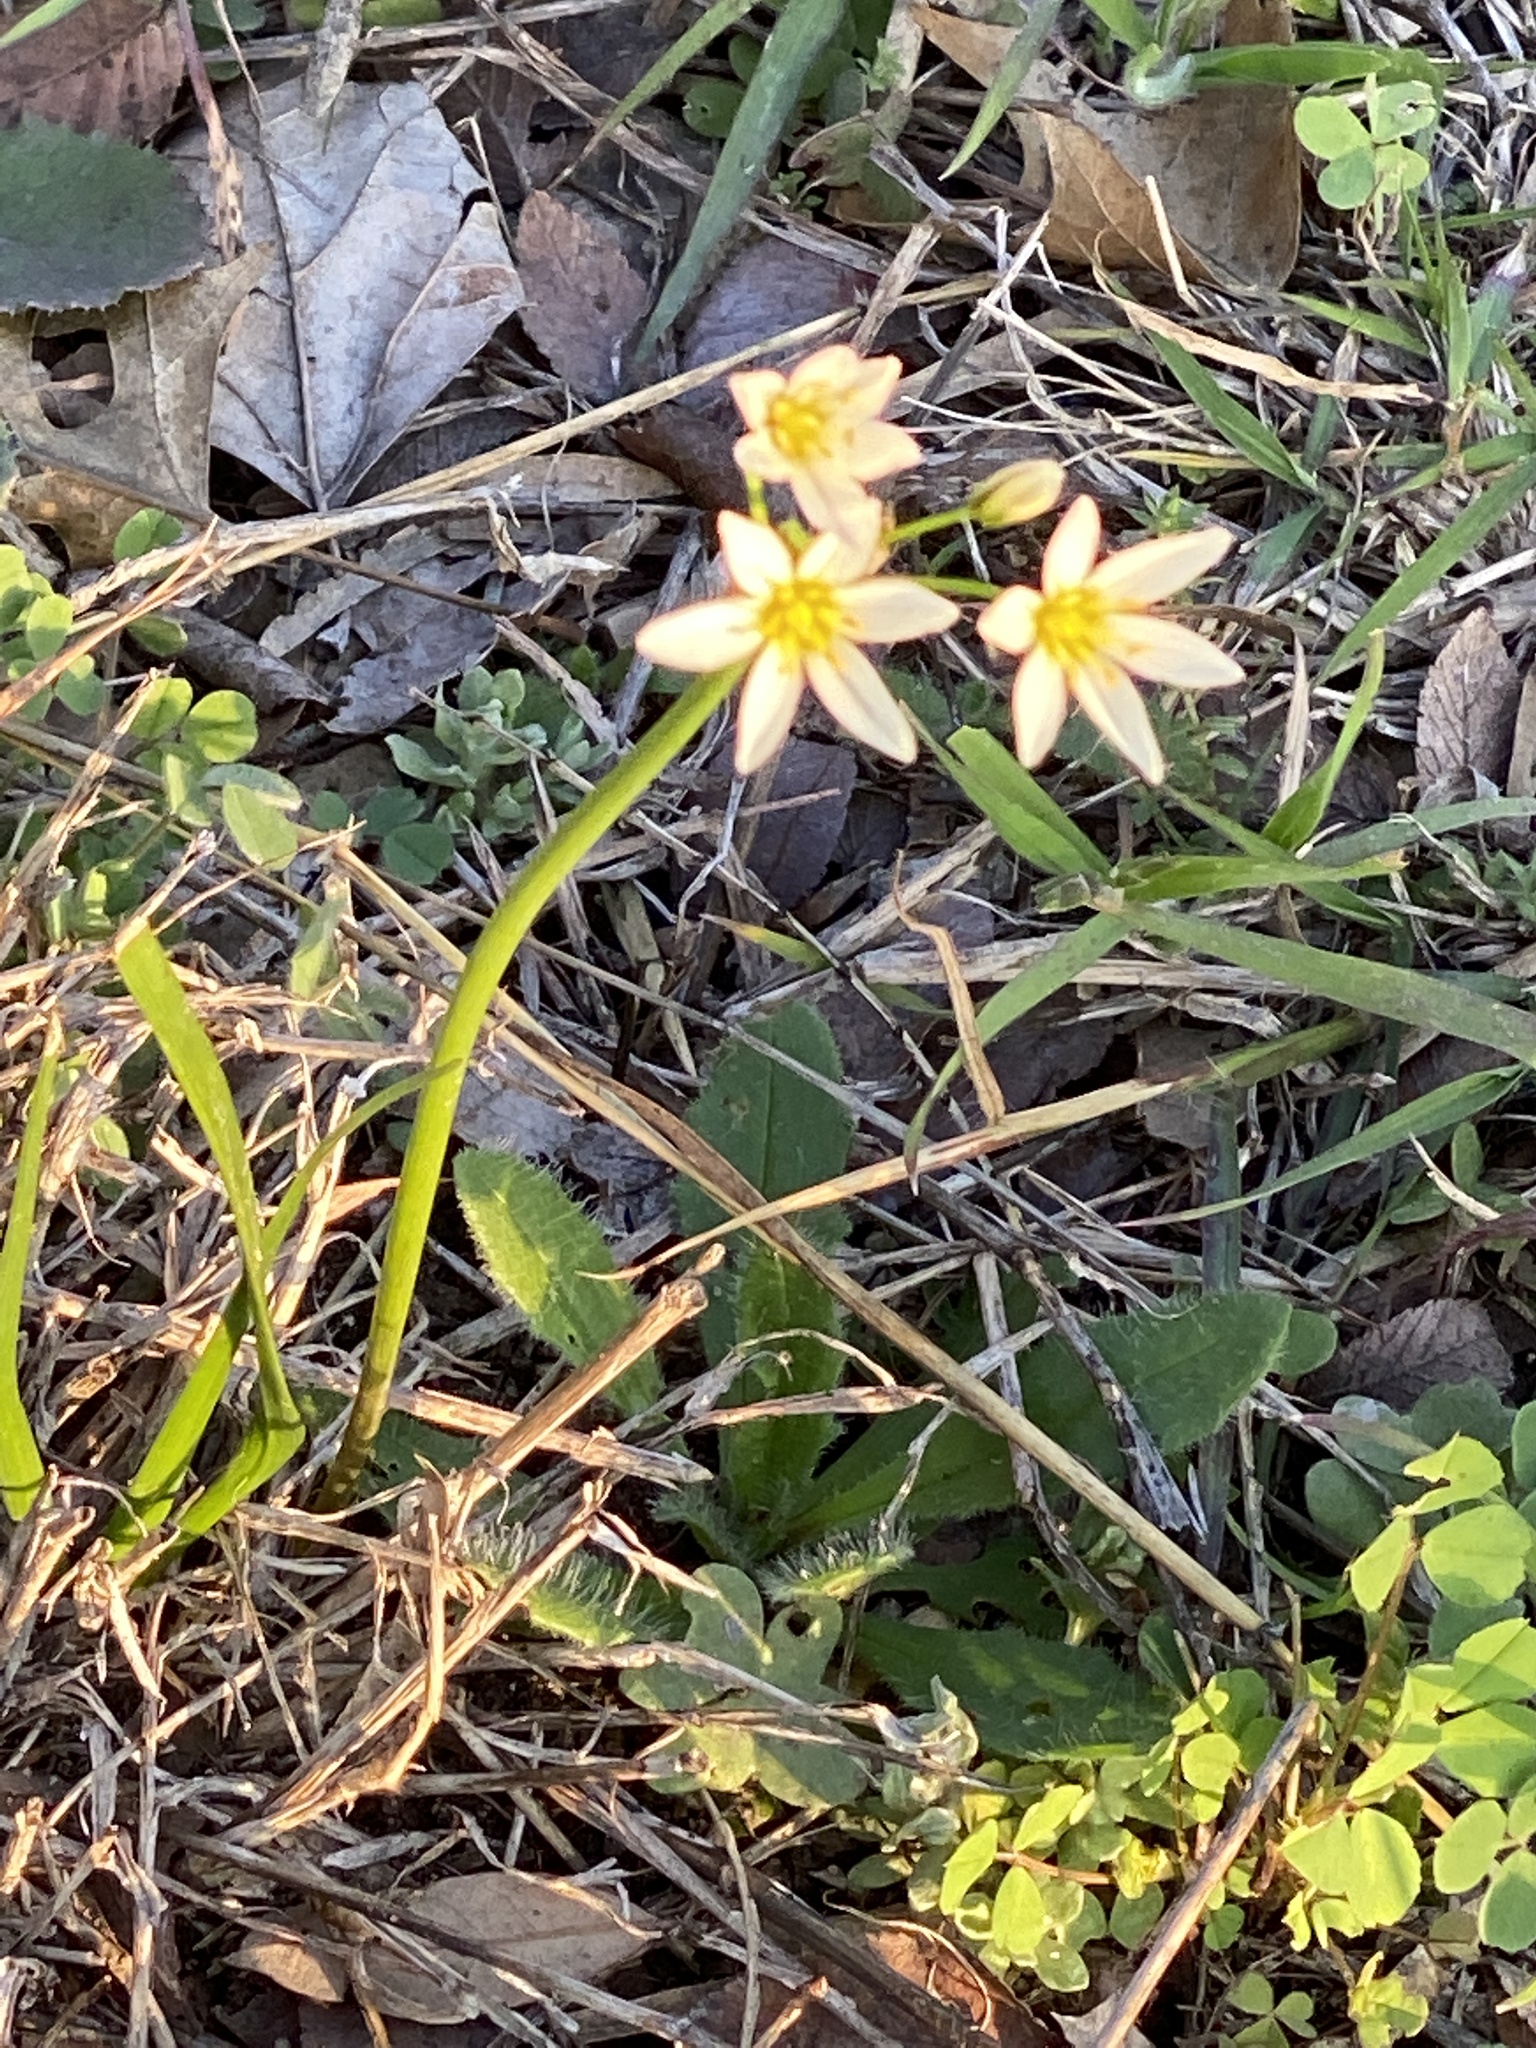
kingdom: Plantae
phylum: Tracheophyta
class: Liliopsida
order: Asparagales
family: Amaryllidaceae
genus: Nothoscordum
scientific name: Nothoscordum bivalve
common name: Crow-poison
